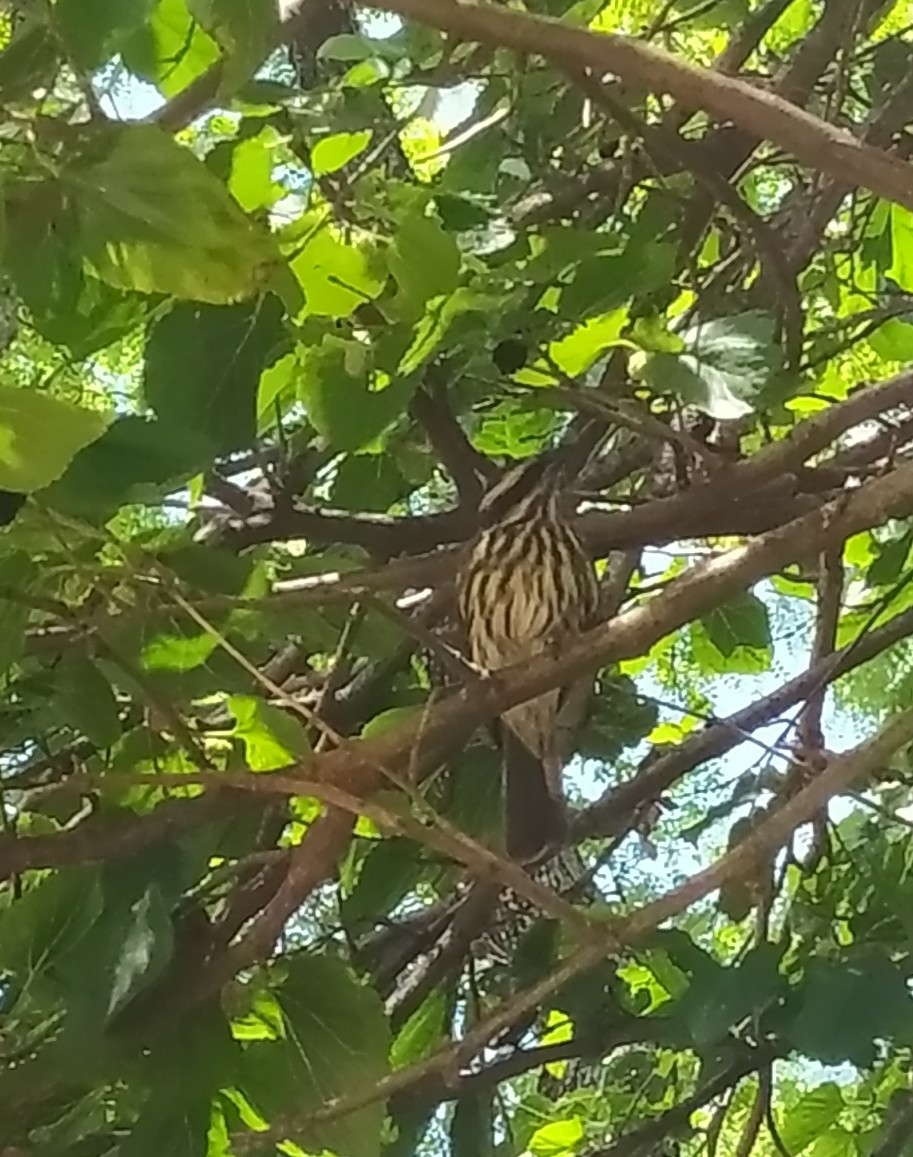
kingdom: Animalia
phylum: Chordata
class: Aves
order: Passeriformes
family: Tyrannidae
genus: Myiodynastes
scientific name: Myiodynastes maculatus
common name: Streaked flycatcher
